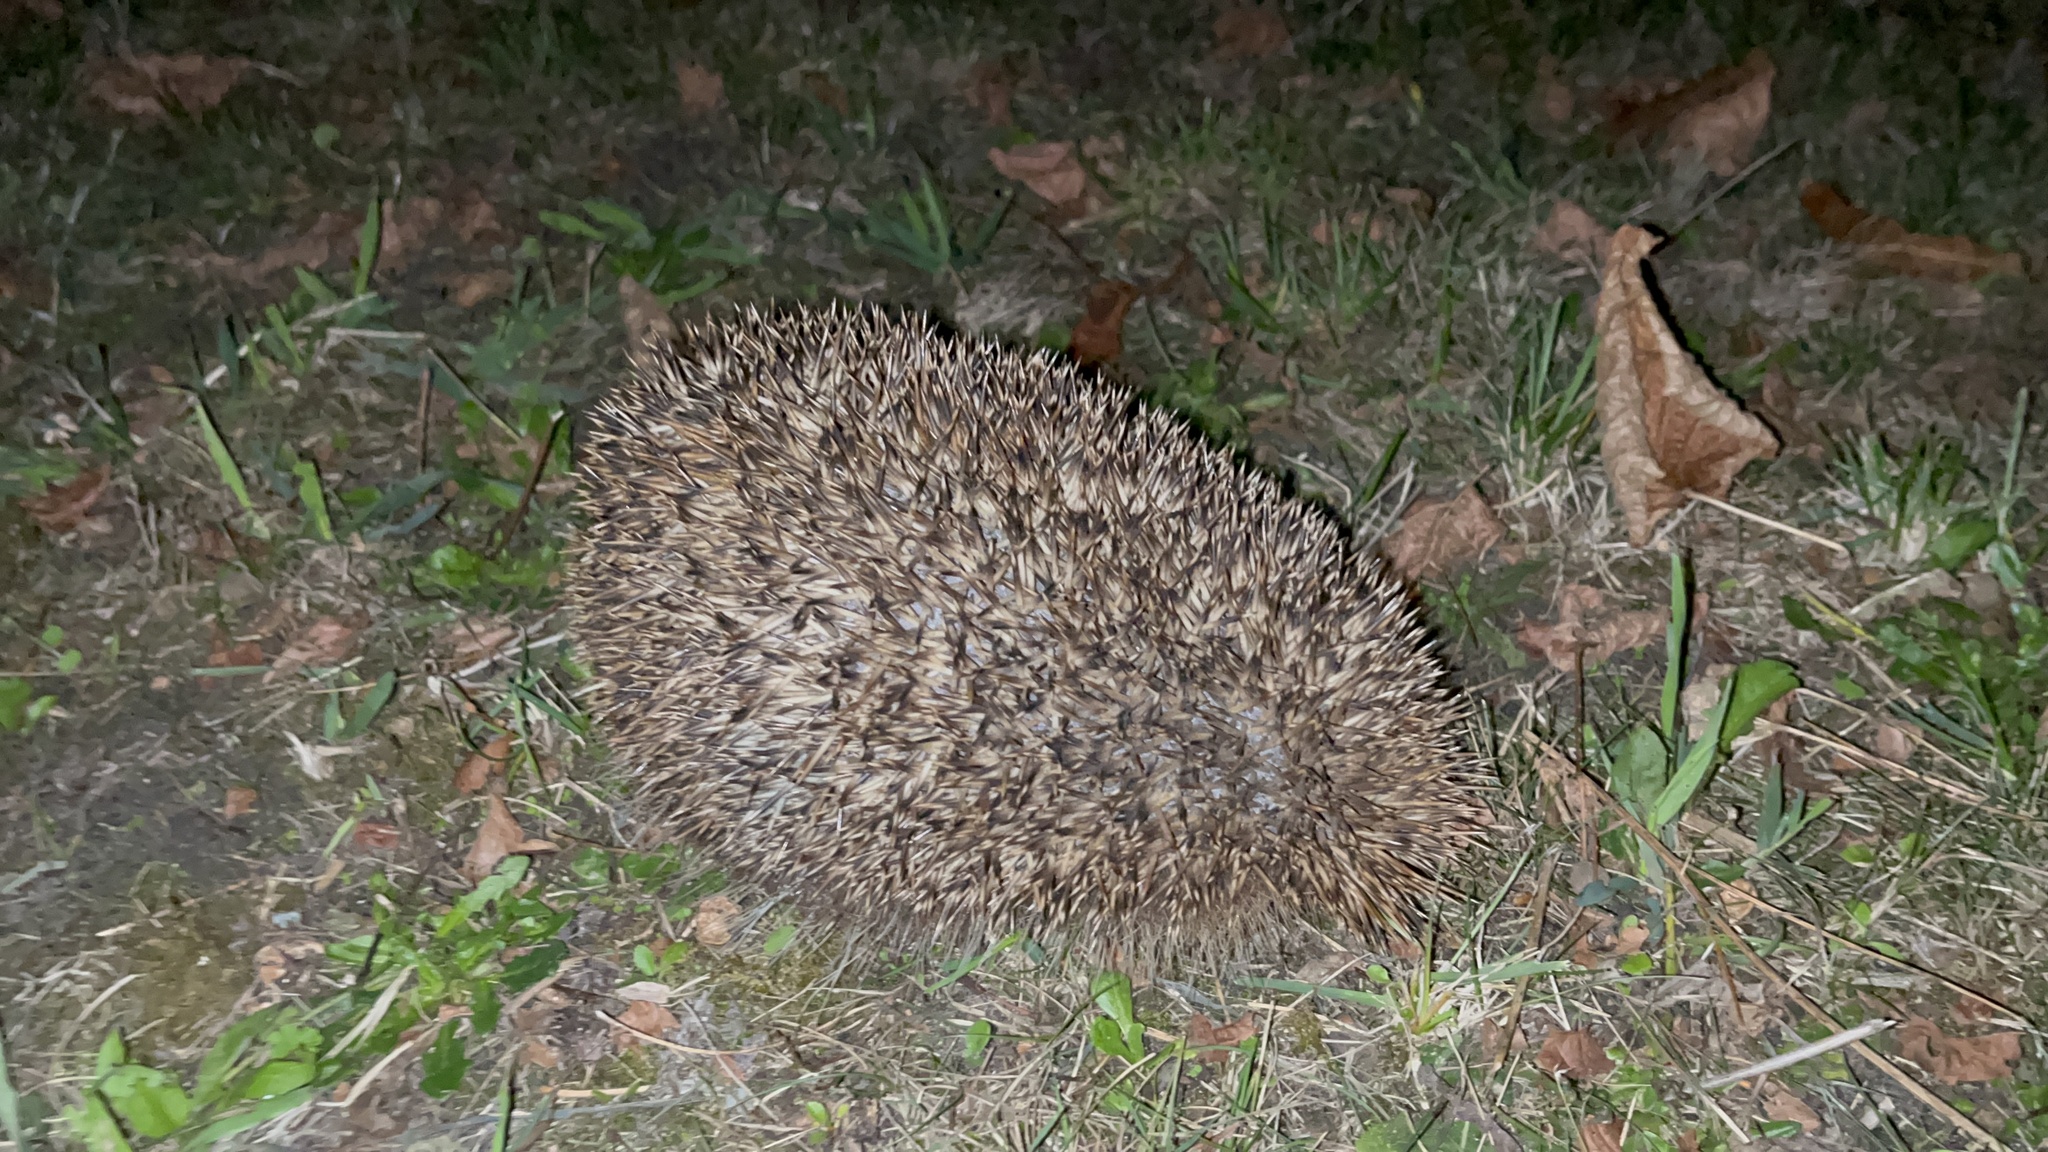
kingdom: Animalia
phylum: Chordata
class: Mammalia
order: Erinaceomorpha
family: Erinaceidae
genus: Erinaceus
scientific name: Erinaceus europaeus
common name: West european hedgehog
